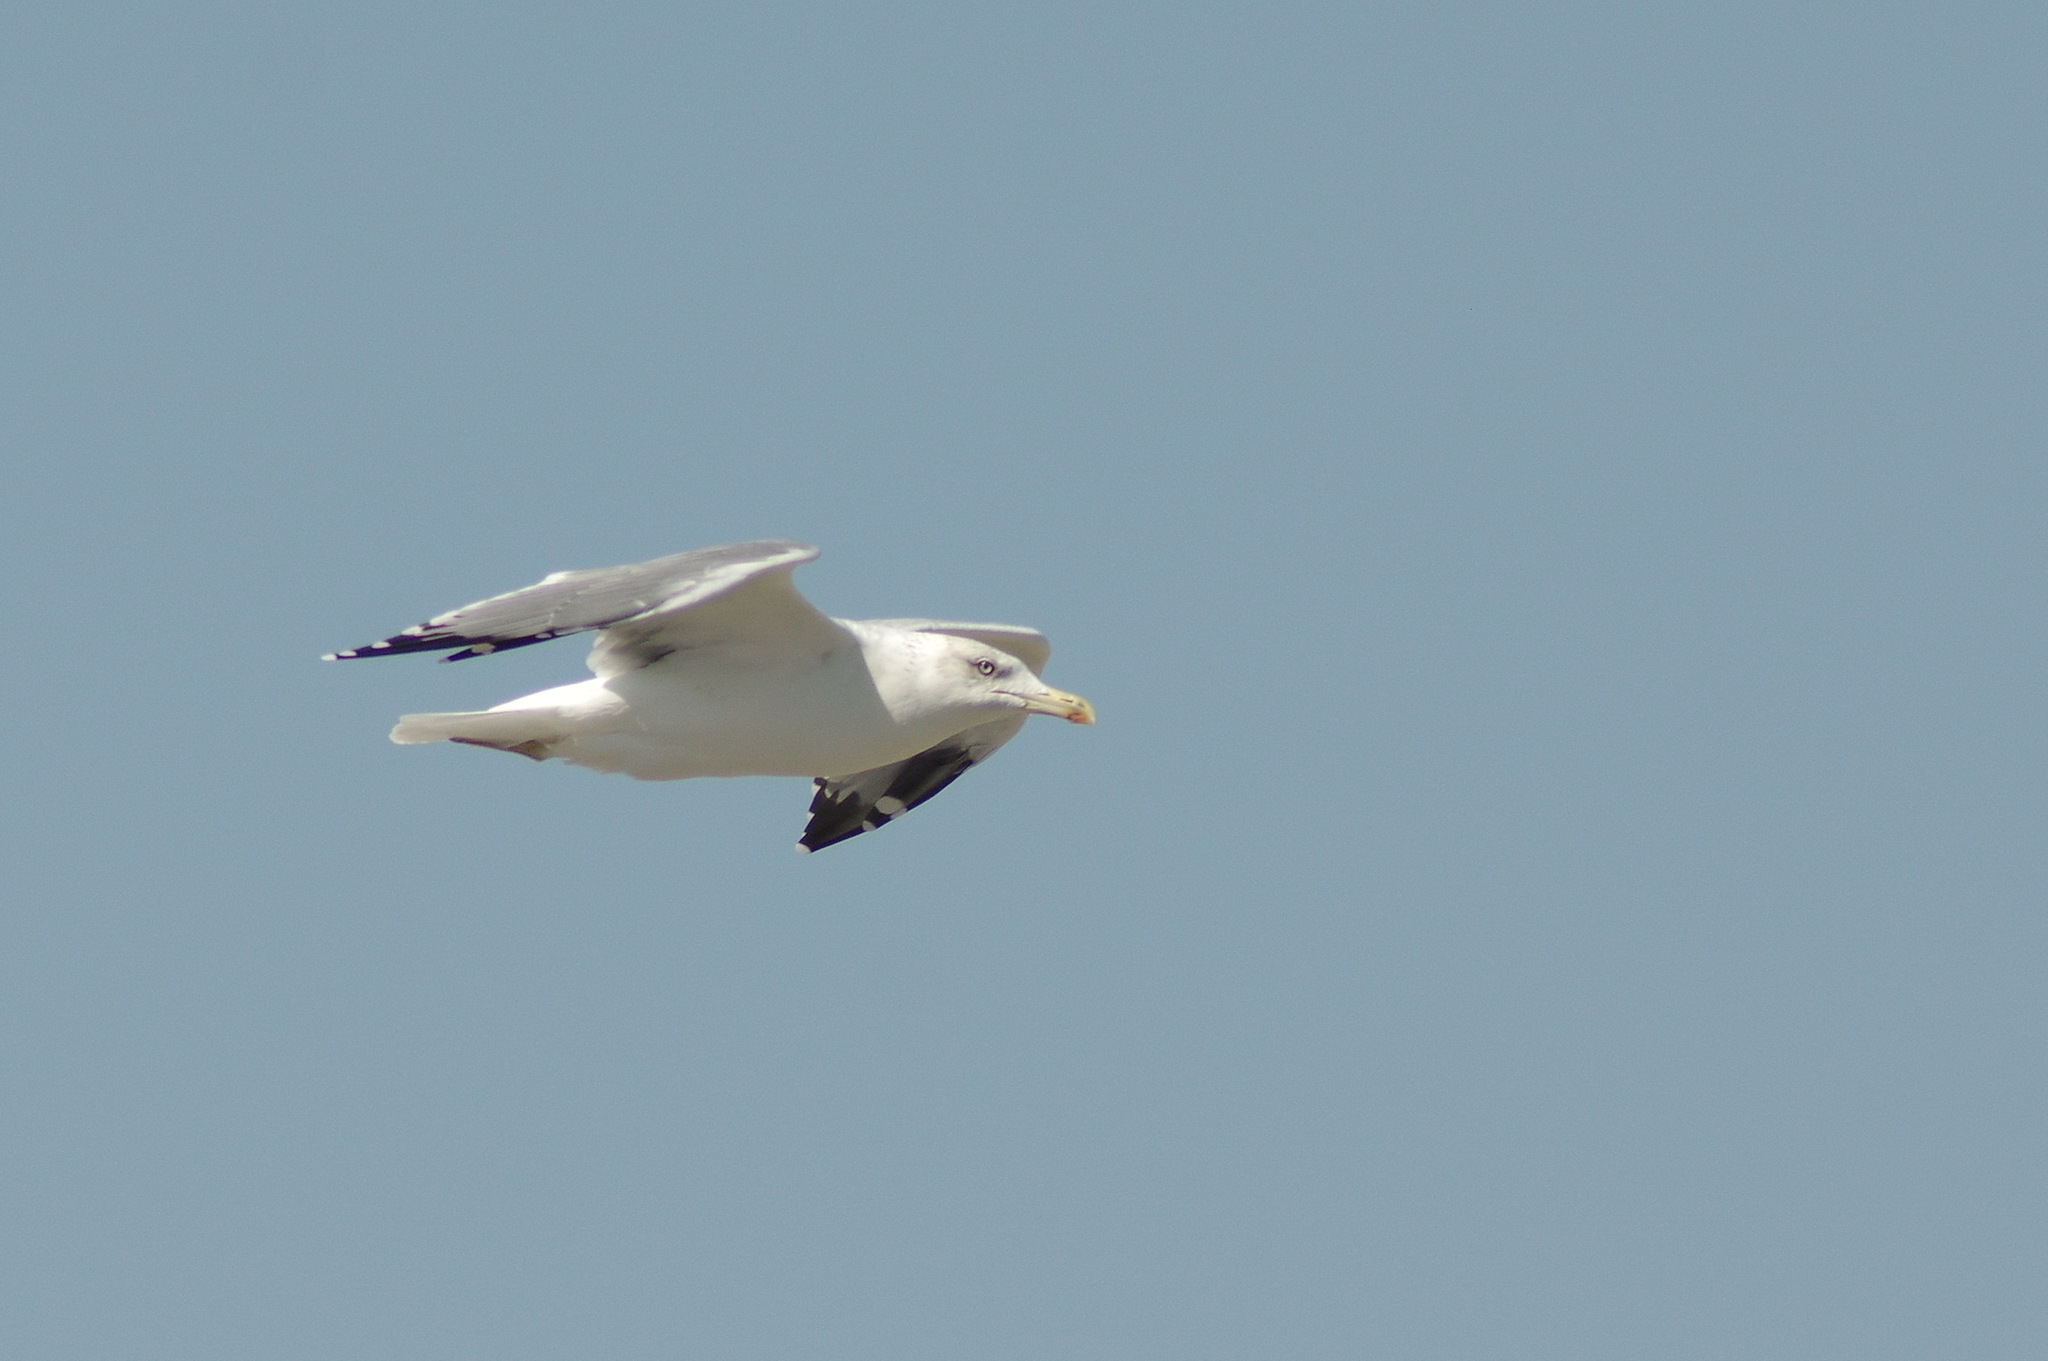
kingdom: Animalia
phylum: Chordata
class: Aves
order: Charadriiformes
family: Laridae
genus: Larus
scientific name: Larus michahellis
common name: Yellow-legged gull
